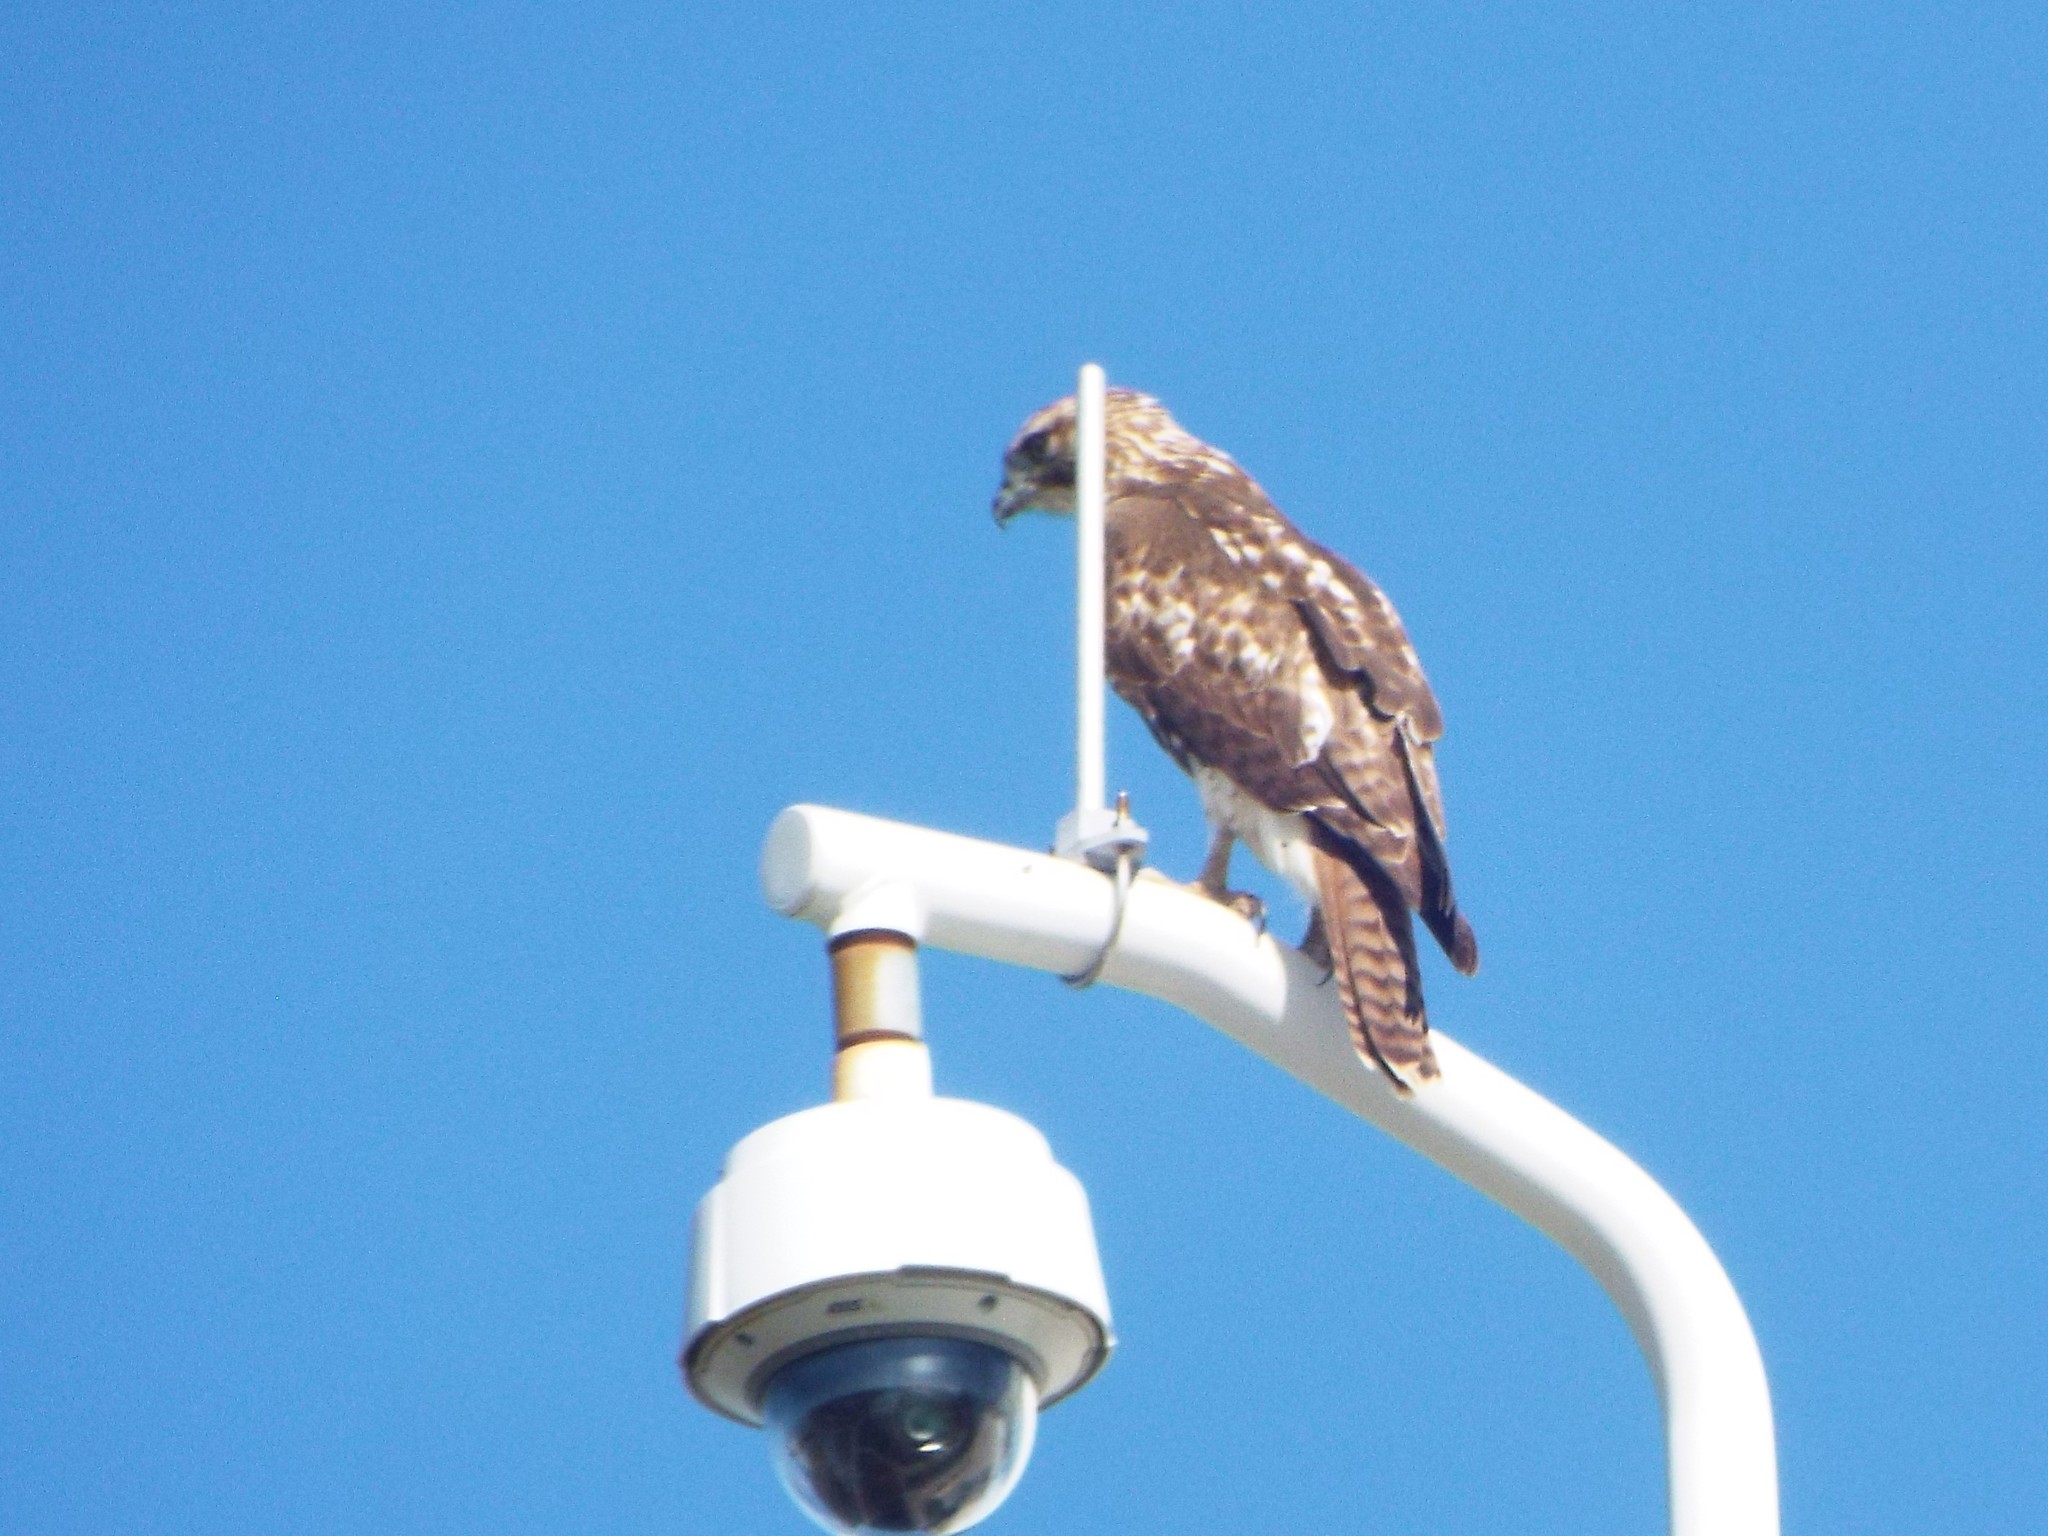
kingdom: Animalia
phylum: Chordata
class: Aves
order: Accipitriformes
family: Accipitridae
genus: Buteo
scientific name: Buteo jamaicensis
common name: Red-tailed hawk
